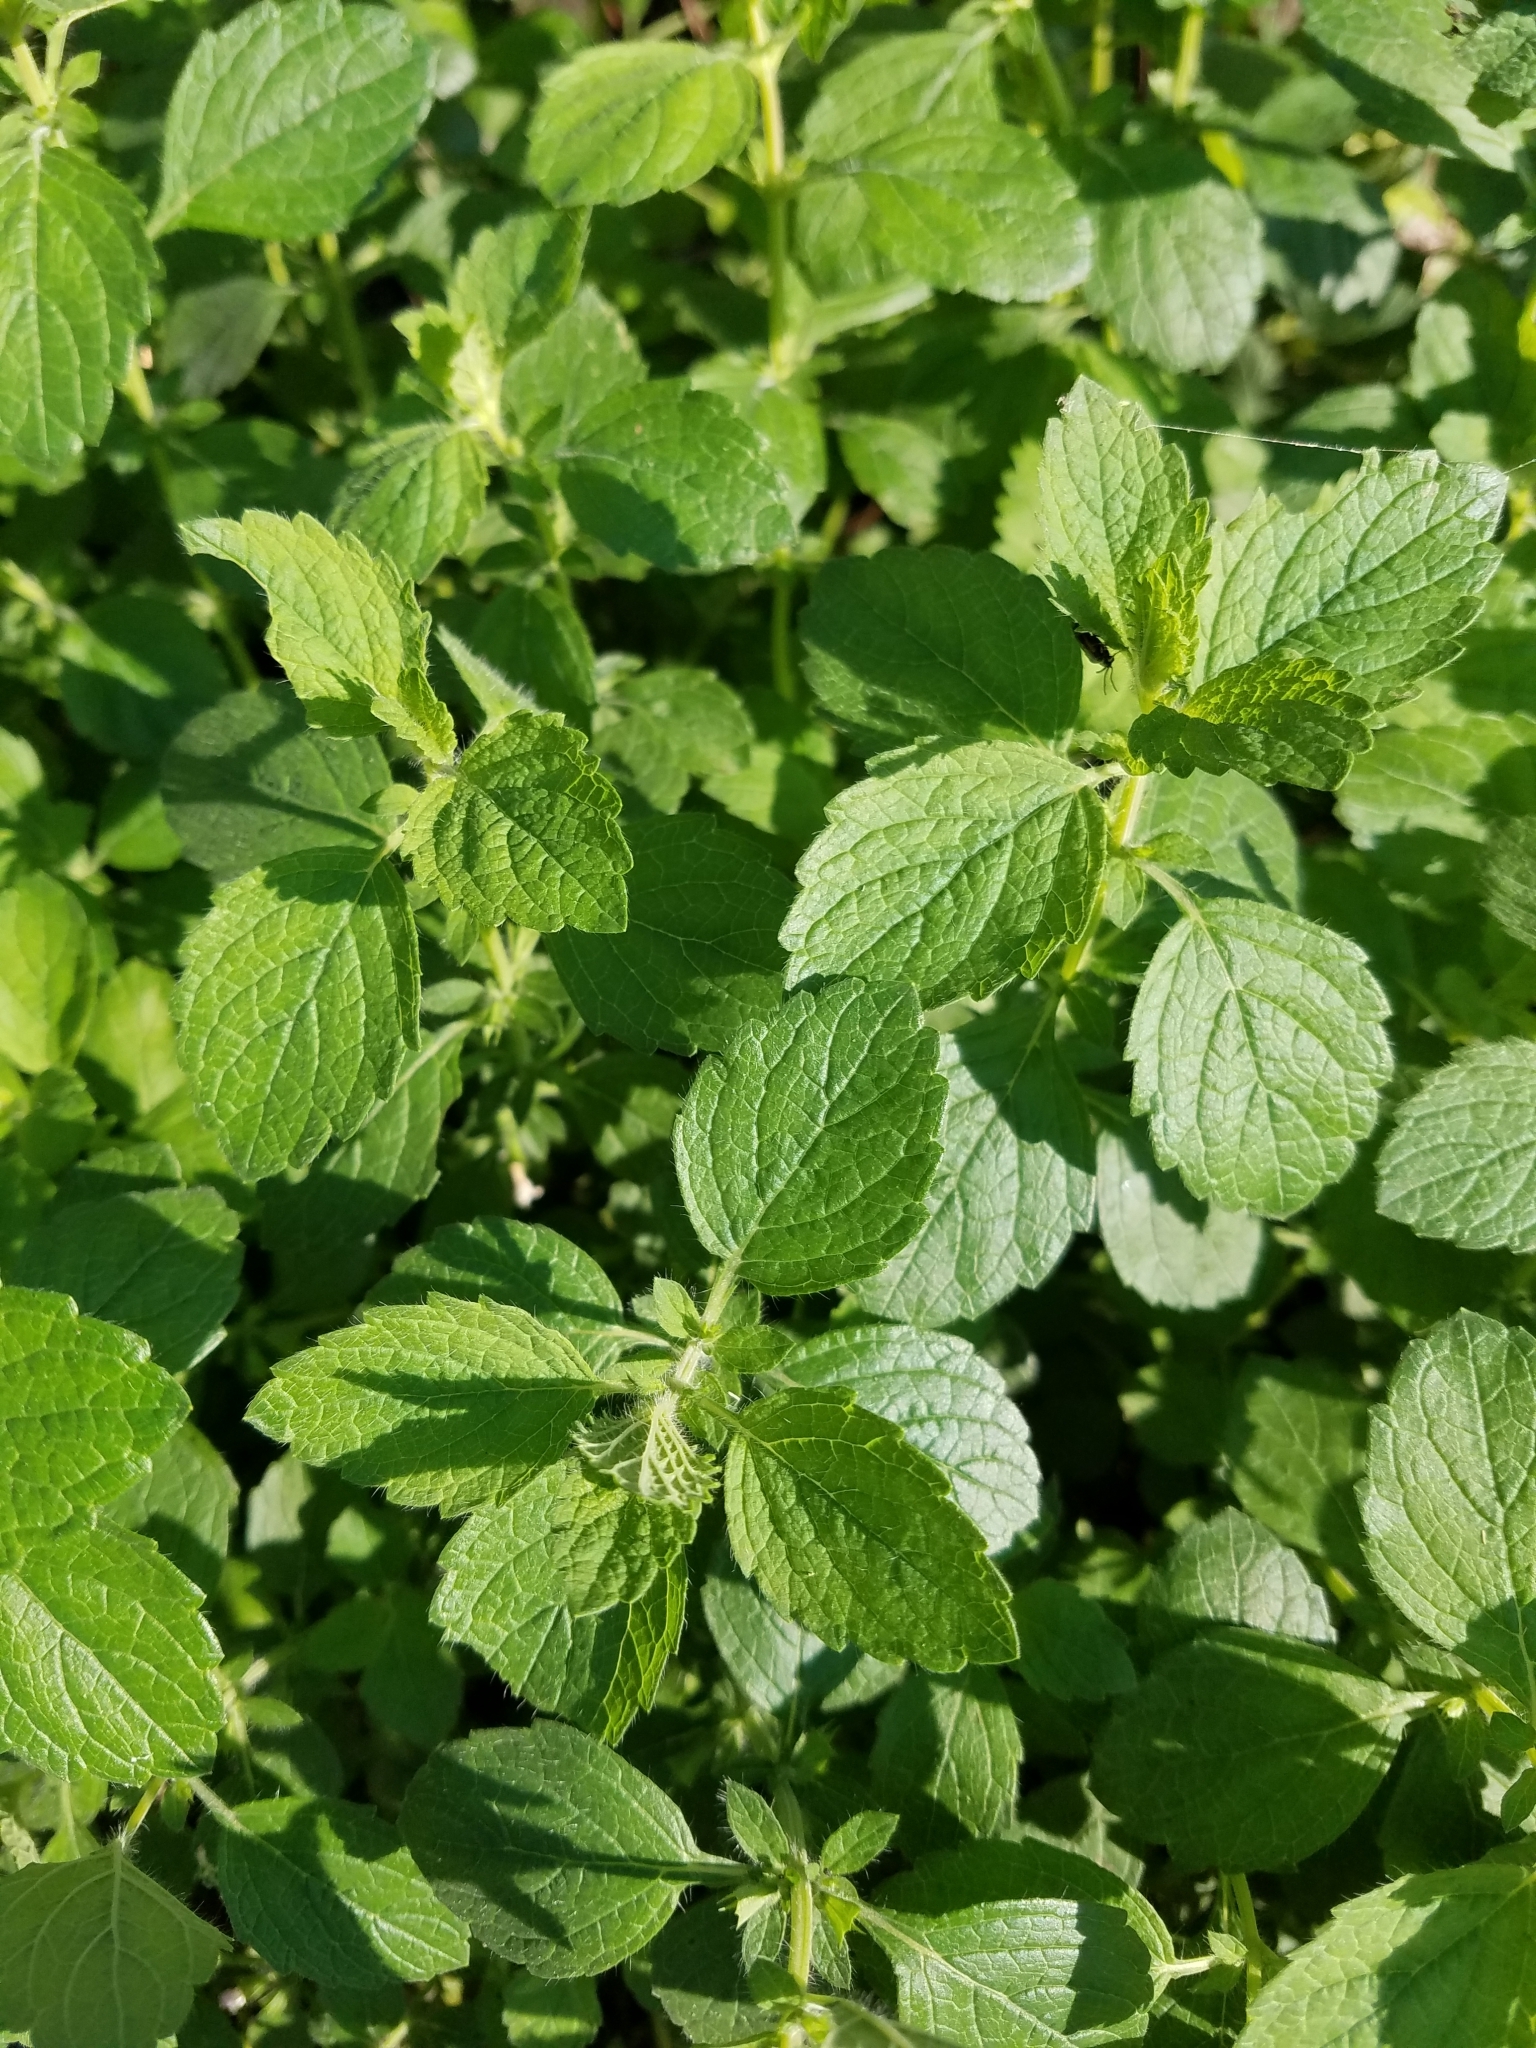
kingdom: Plantae
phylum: Tracheophyta
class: Magnoliopsida
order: Lamiales
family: Lamiaceae
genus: Melissa
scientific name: Melissa officinalis
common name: Balm
